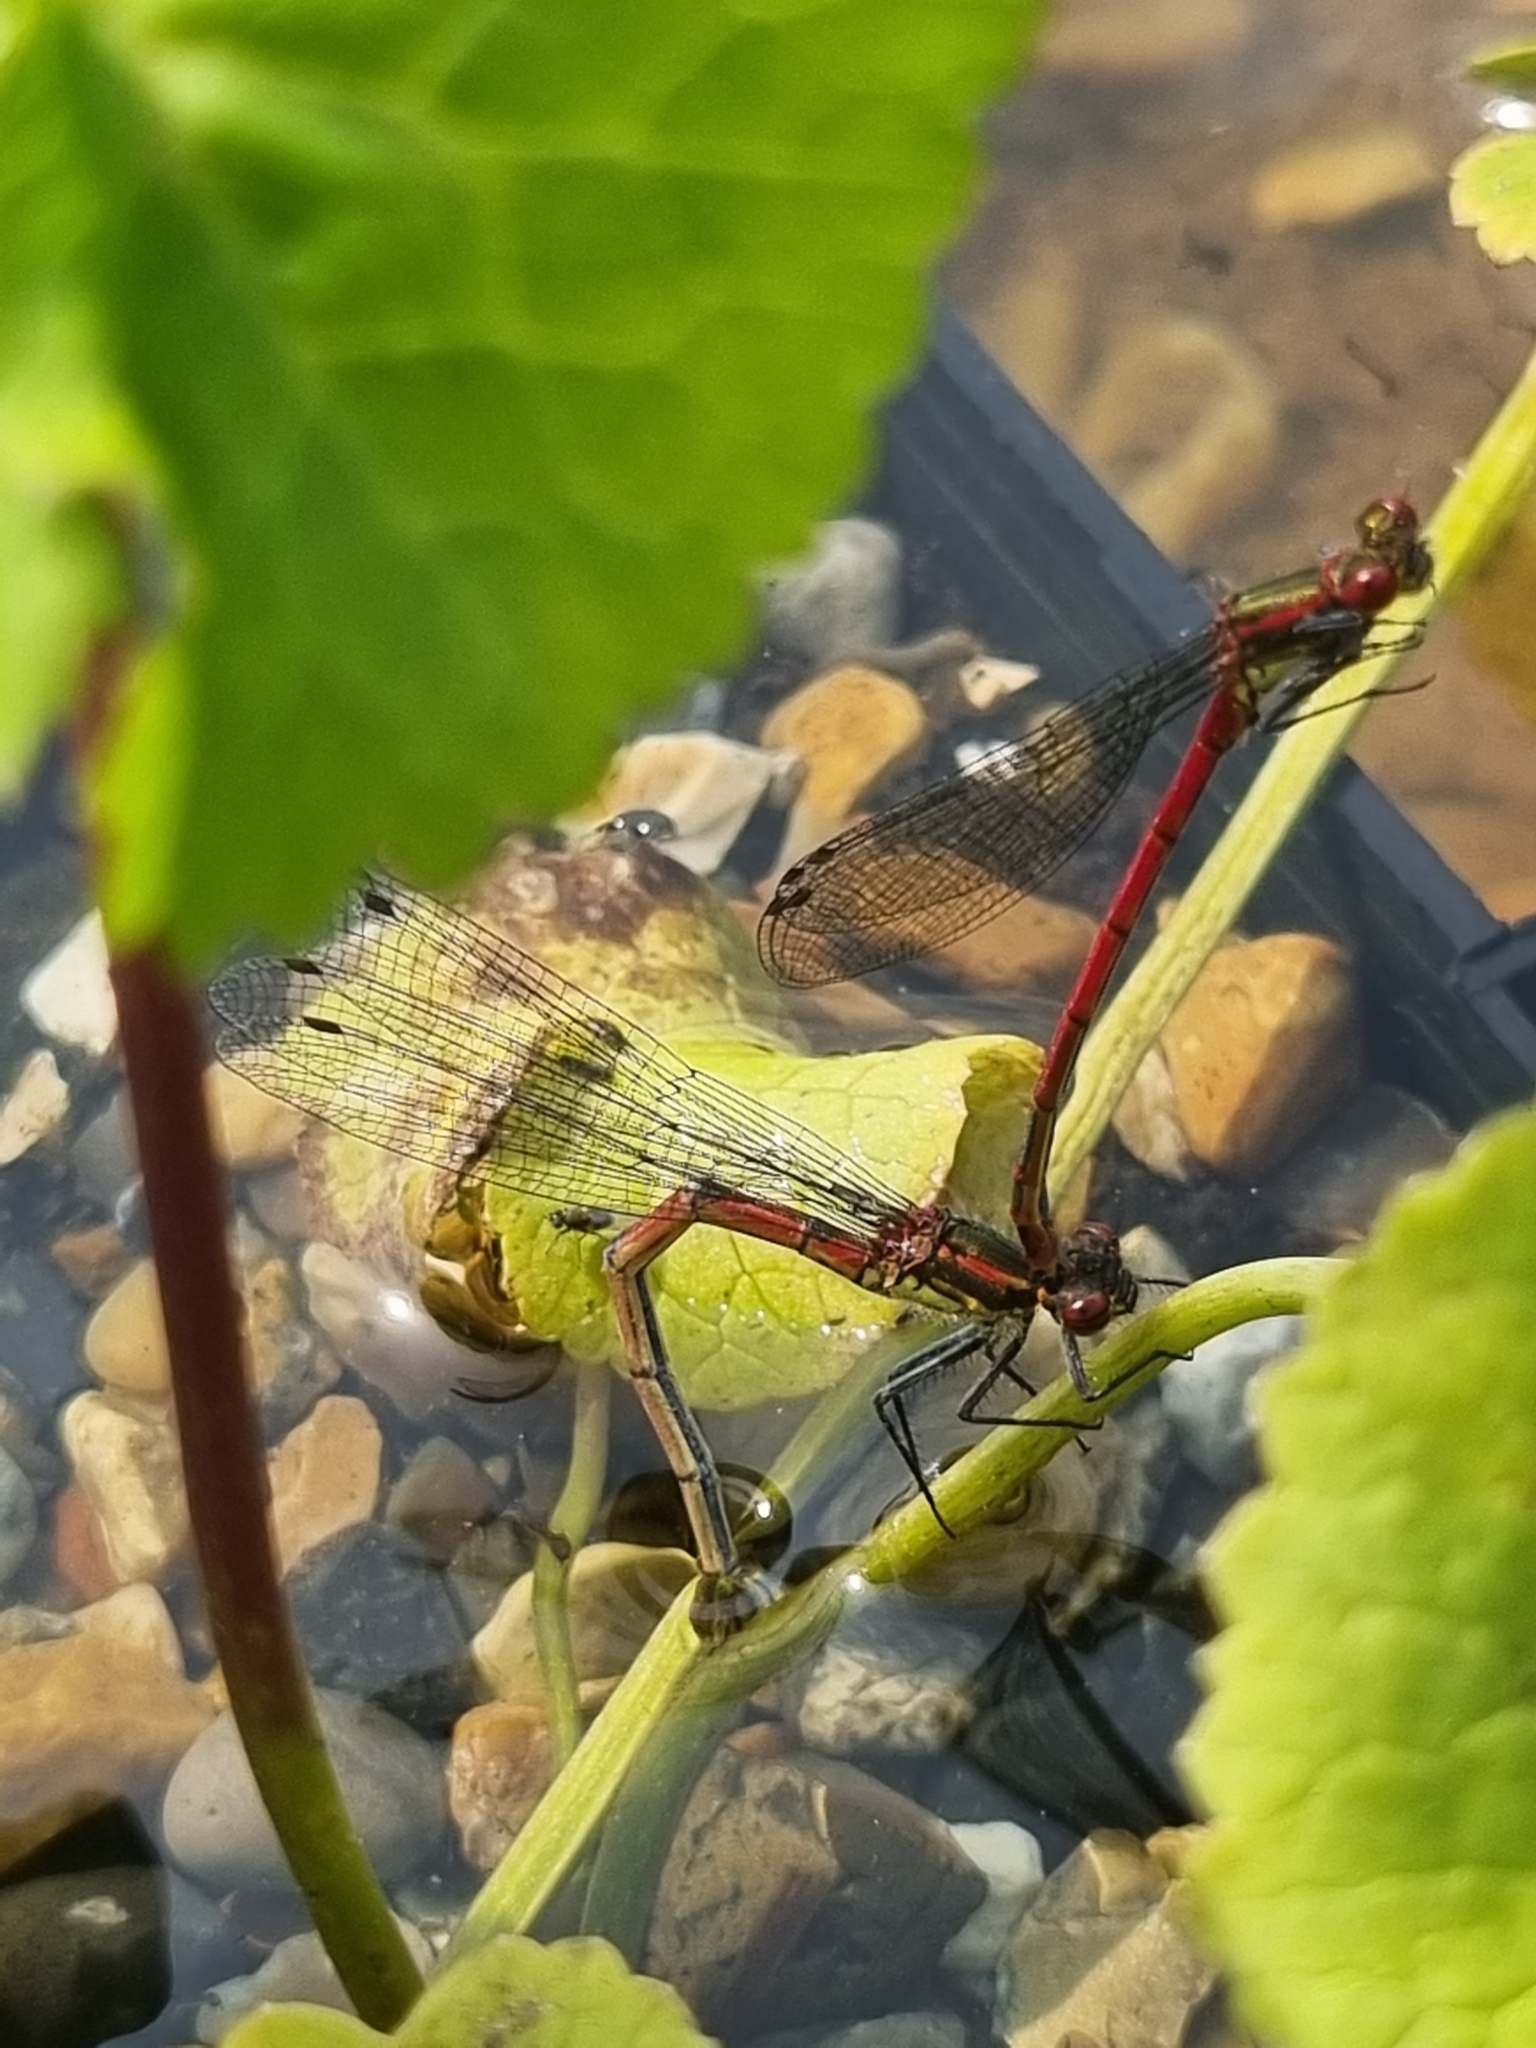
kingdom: Animalia
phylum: Arthropoda
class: Insecta
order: Odonata
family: Coenagrionidae
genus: Pyrrhosoma
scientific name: Pyrrhosoma nymphula
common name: Large red damsel
